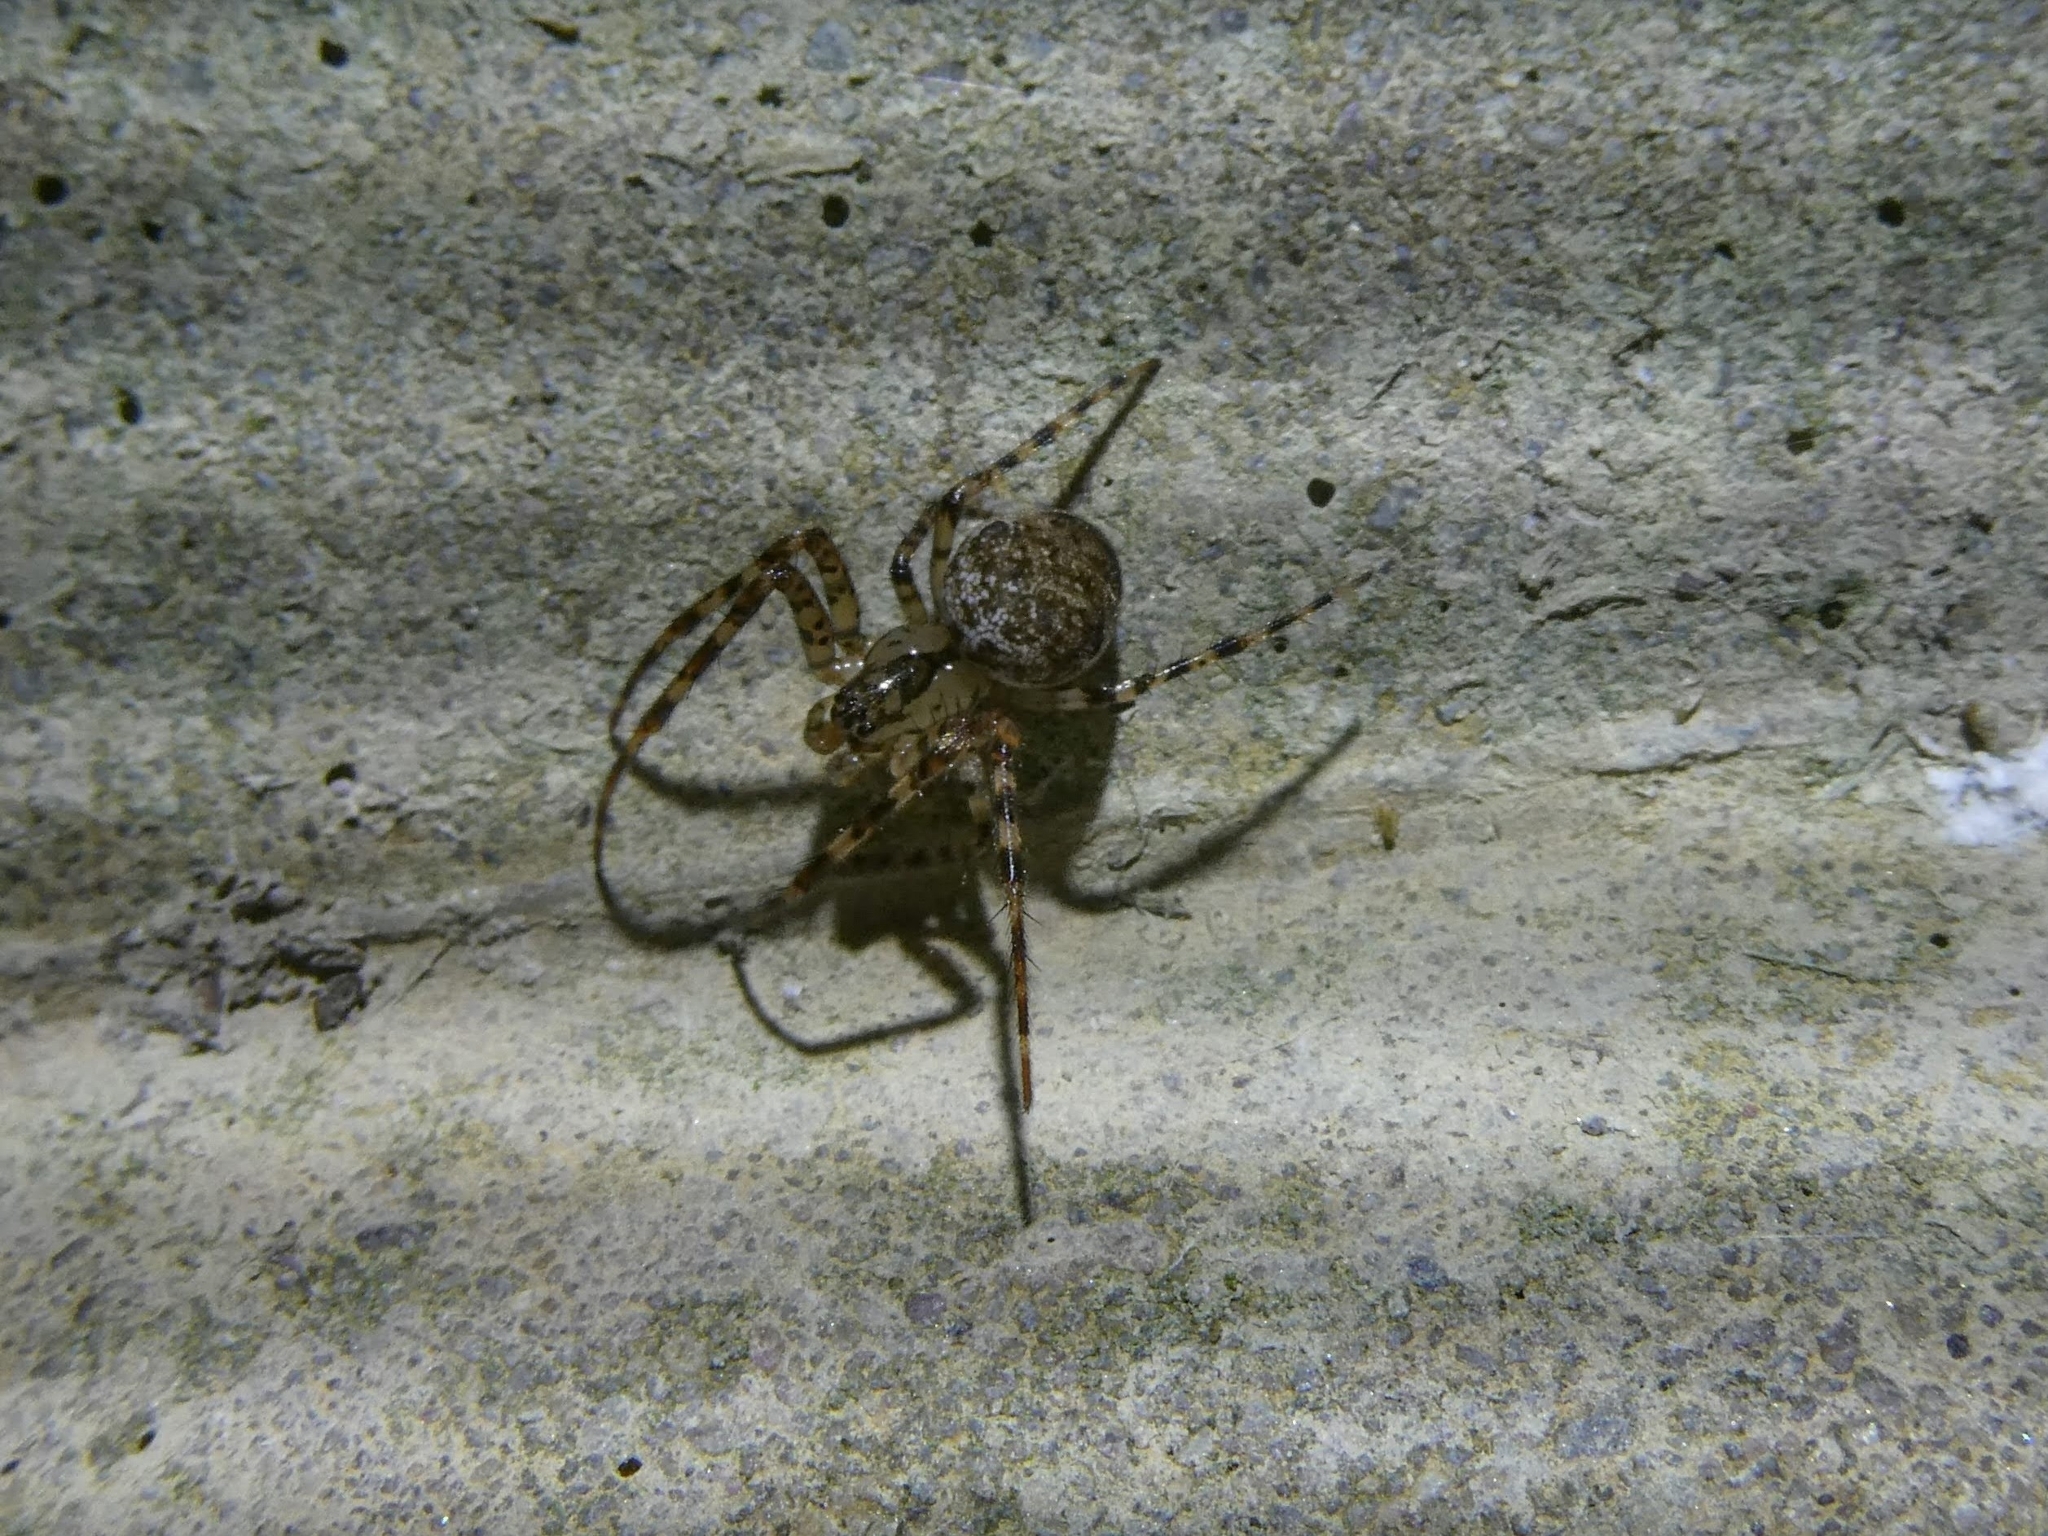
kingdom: Animalia
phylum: Arthropoda
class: Arachnida
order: Araneae
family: Tetragnathidae
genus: Metellina
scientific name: Metellina merianae
